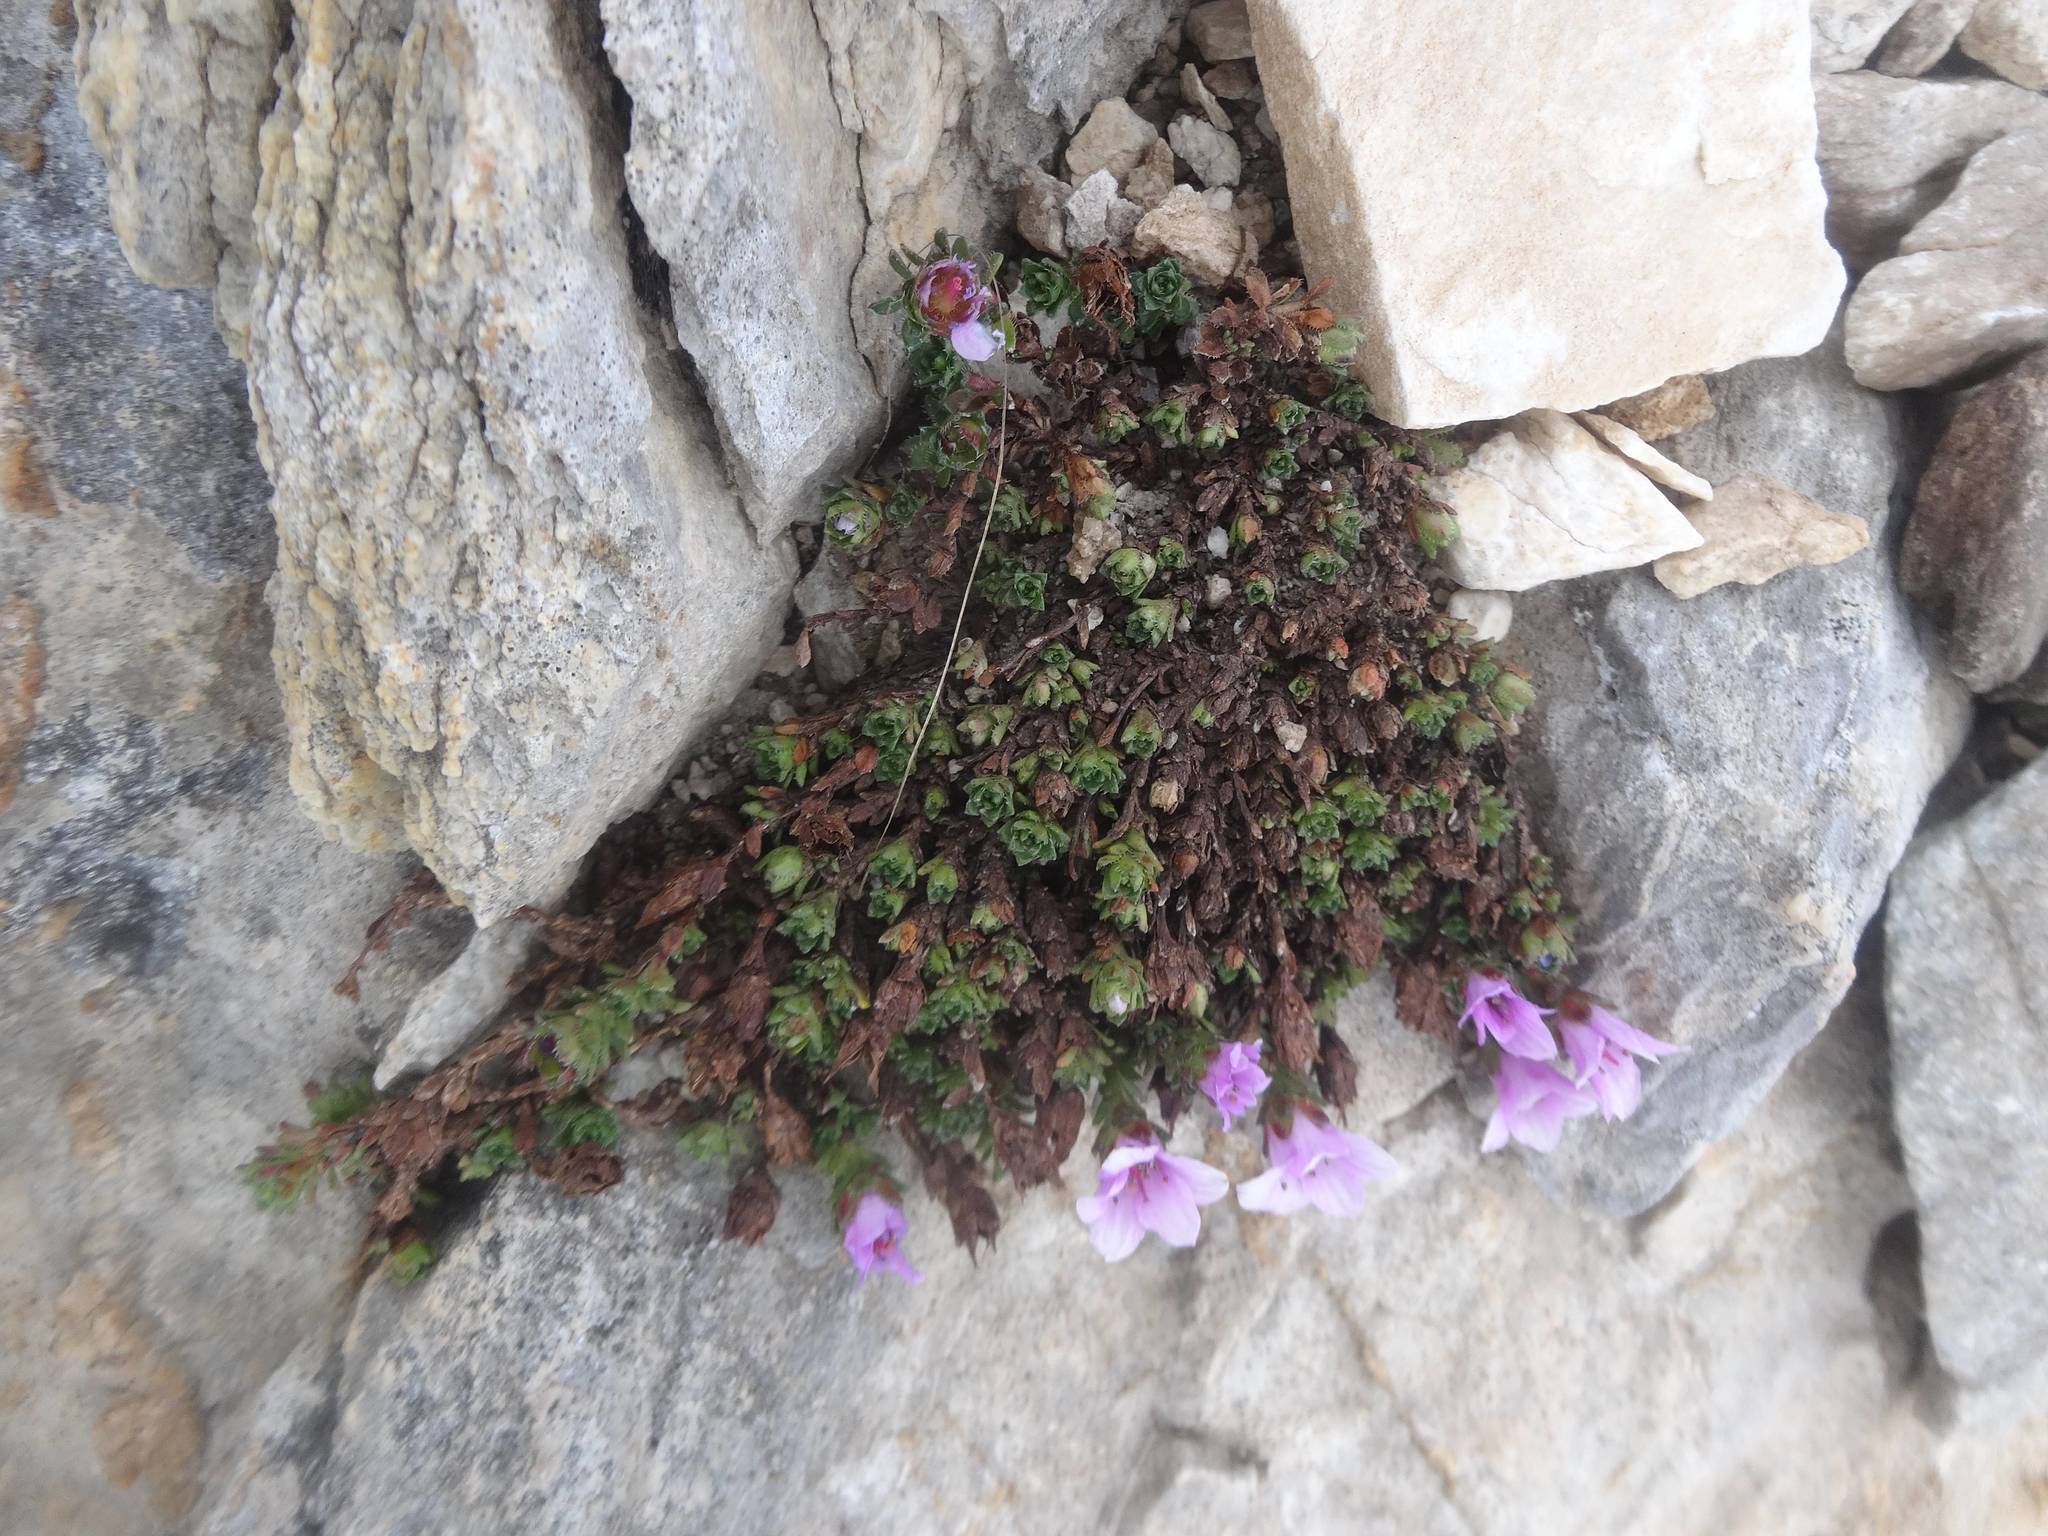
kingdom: Plantae
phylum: Tracheophyta
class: Magnoliopsida
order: Saxifragales
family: Saxifragaceae
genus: Saxifraga
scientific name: Saxifraga oppositifolia
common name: Purple saxifrage
